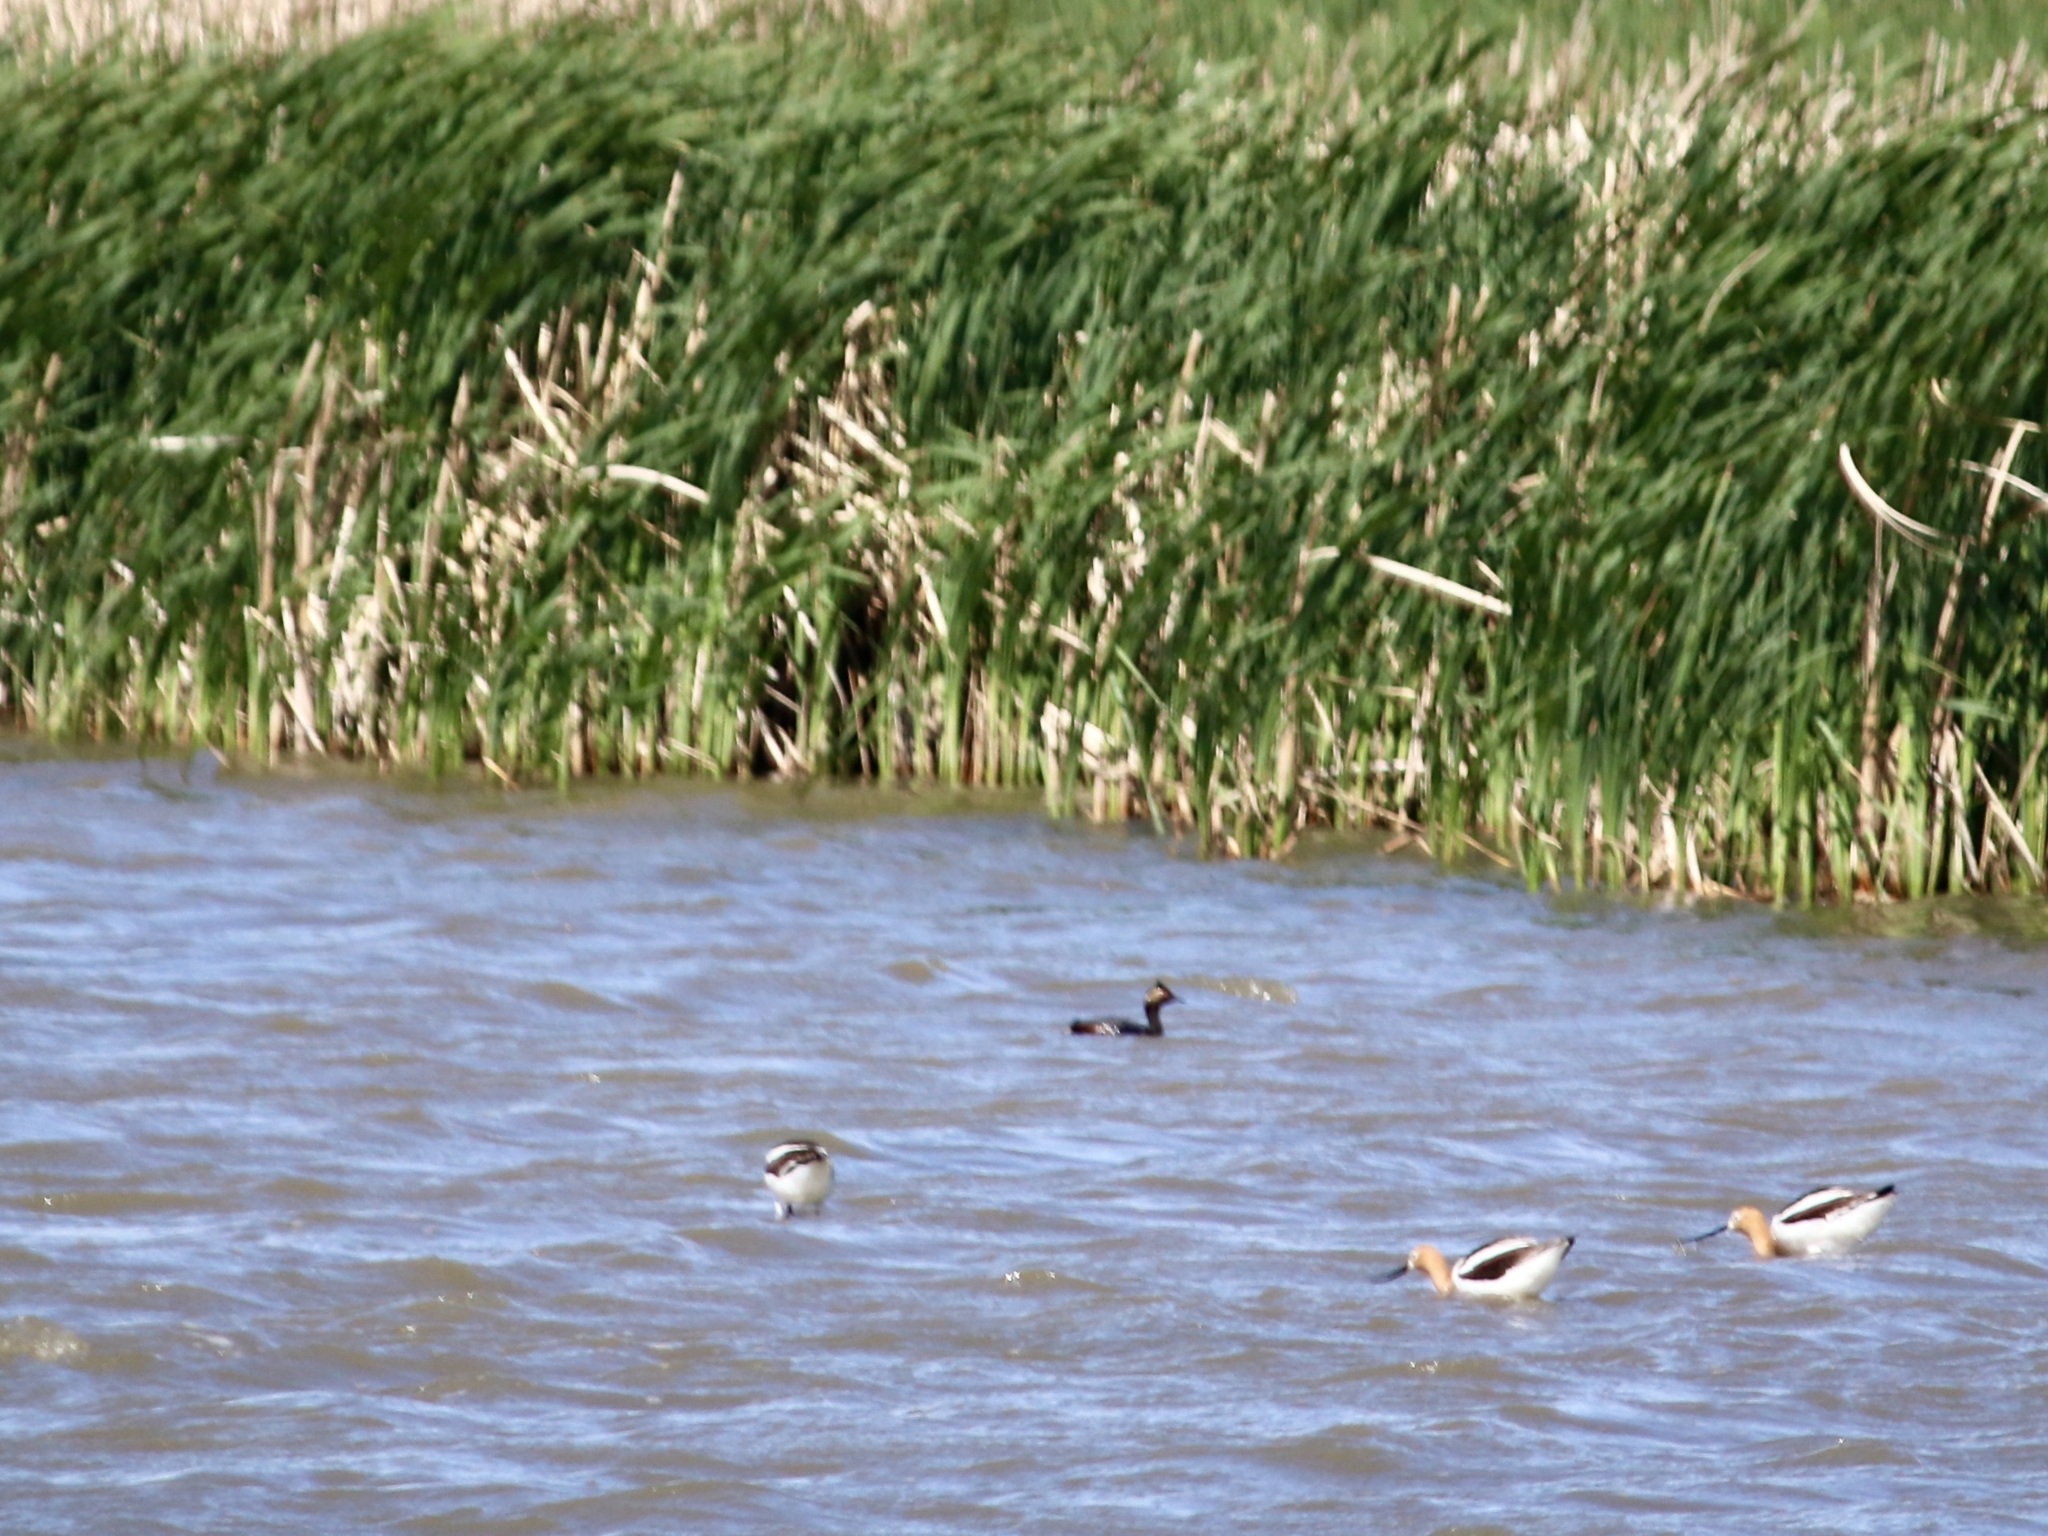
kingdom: Animalia
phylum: Chordata
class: Aves
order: Charadriiformes
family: Recurvirostridae
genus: Recurvirostra
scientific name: Recurvirostra americana
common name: American avocet
